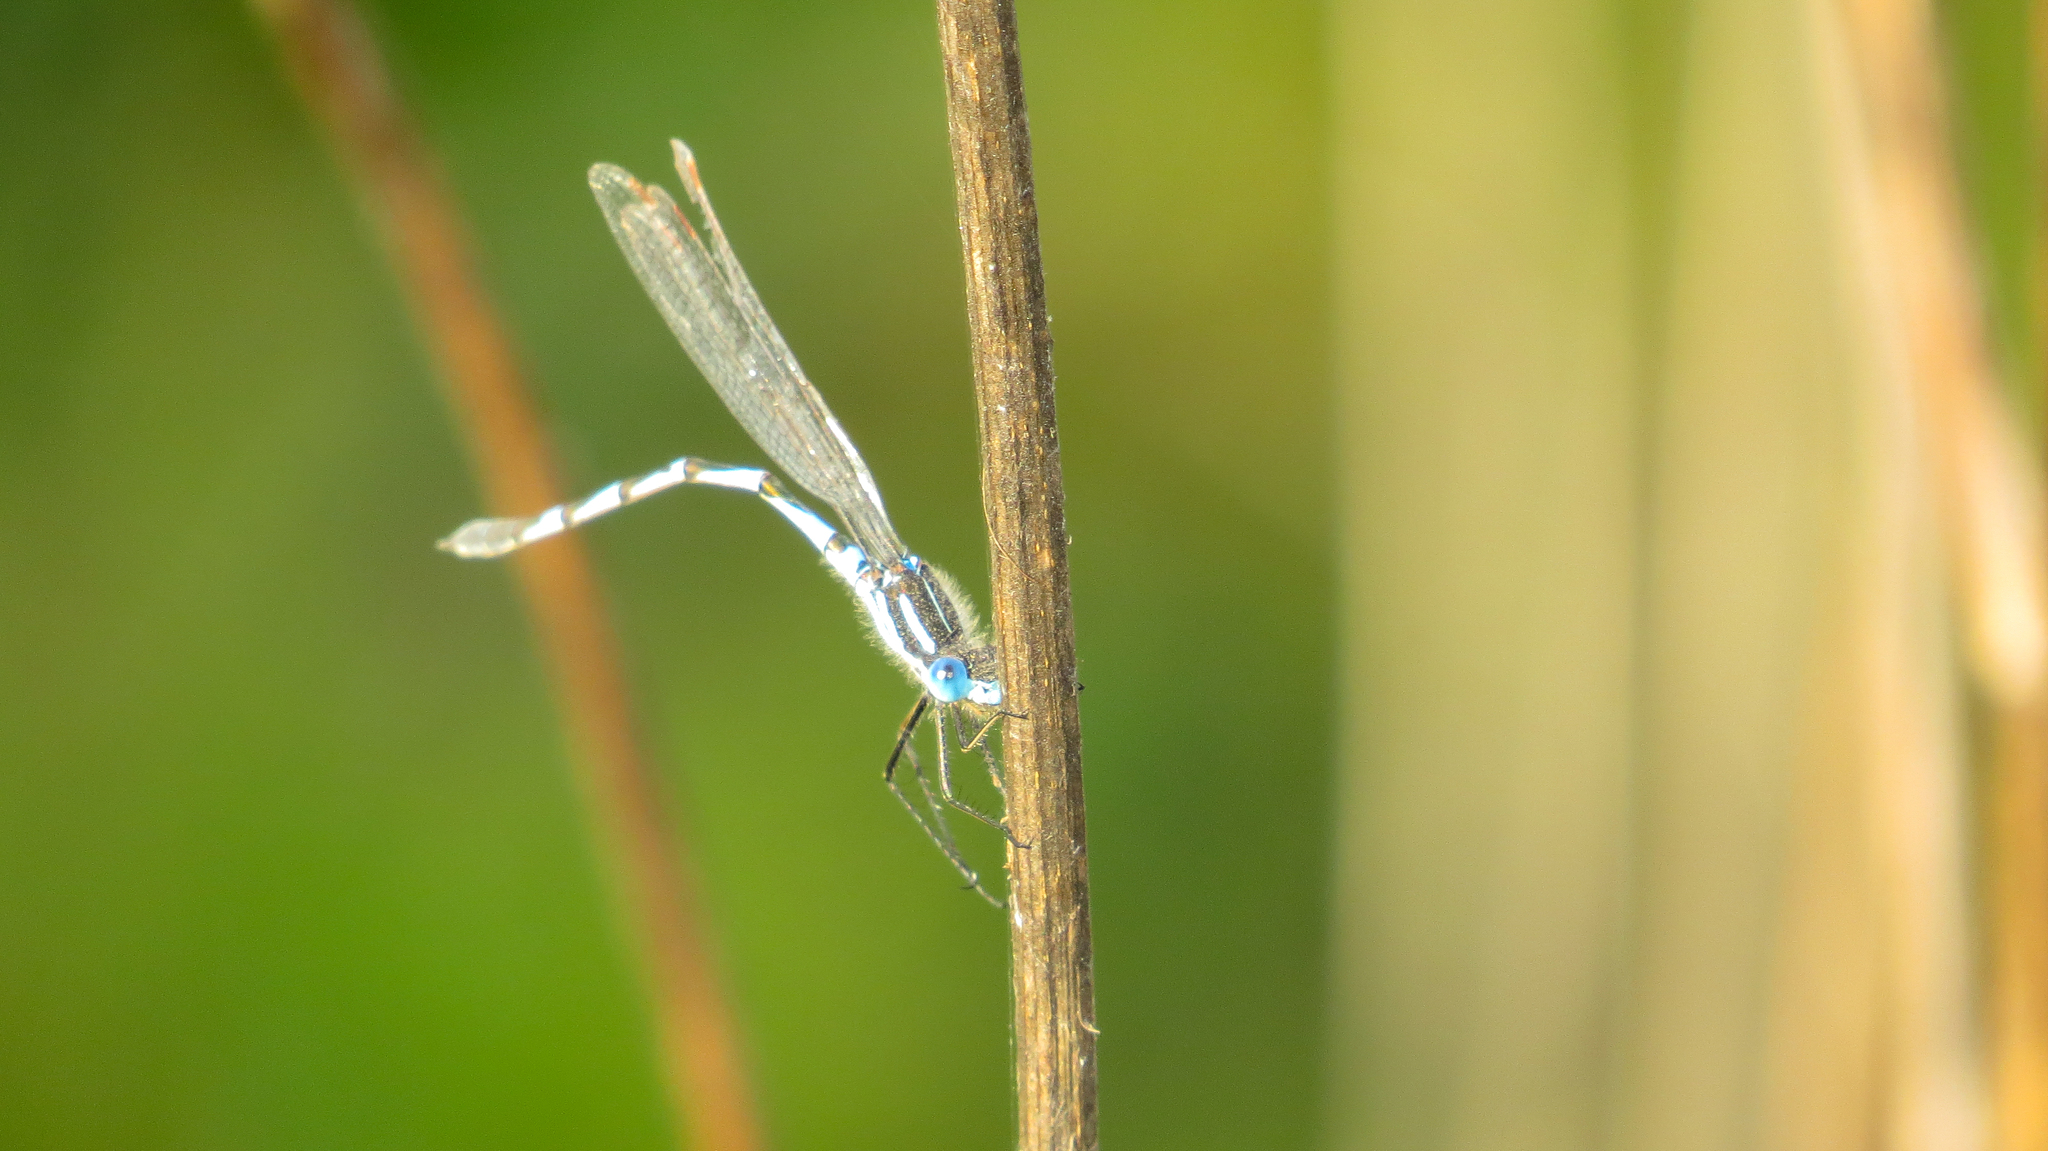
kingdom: Animalia
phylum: Arthropoda
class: Insecta
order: Odonata
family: Lestidae
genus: Austrolestes
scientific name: Austrolestes annulosus
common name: Blue ringtail
